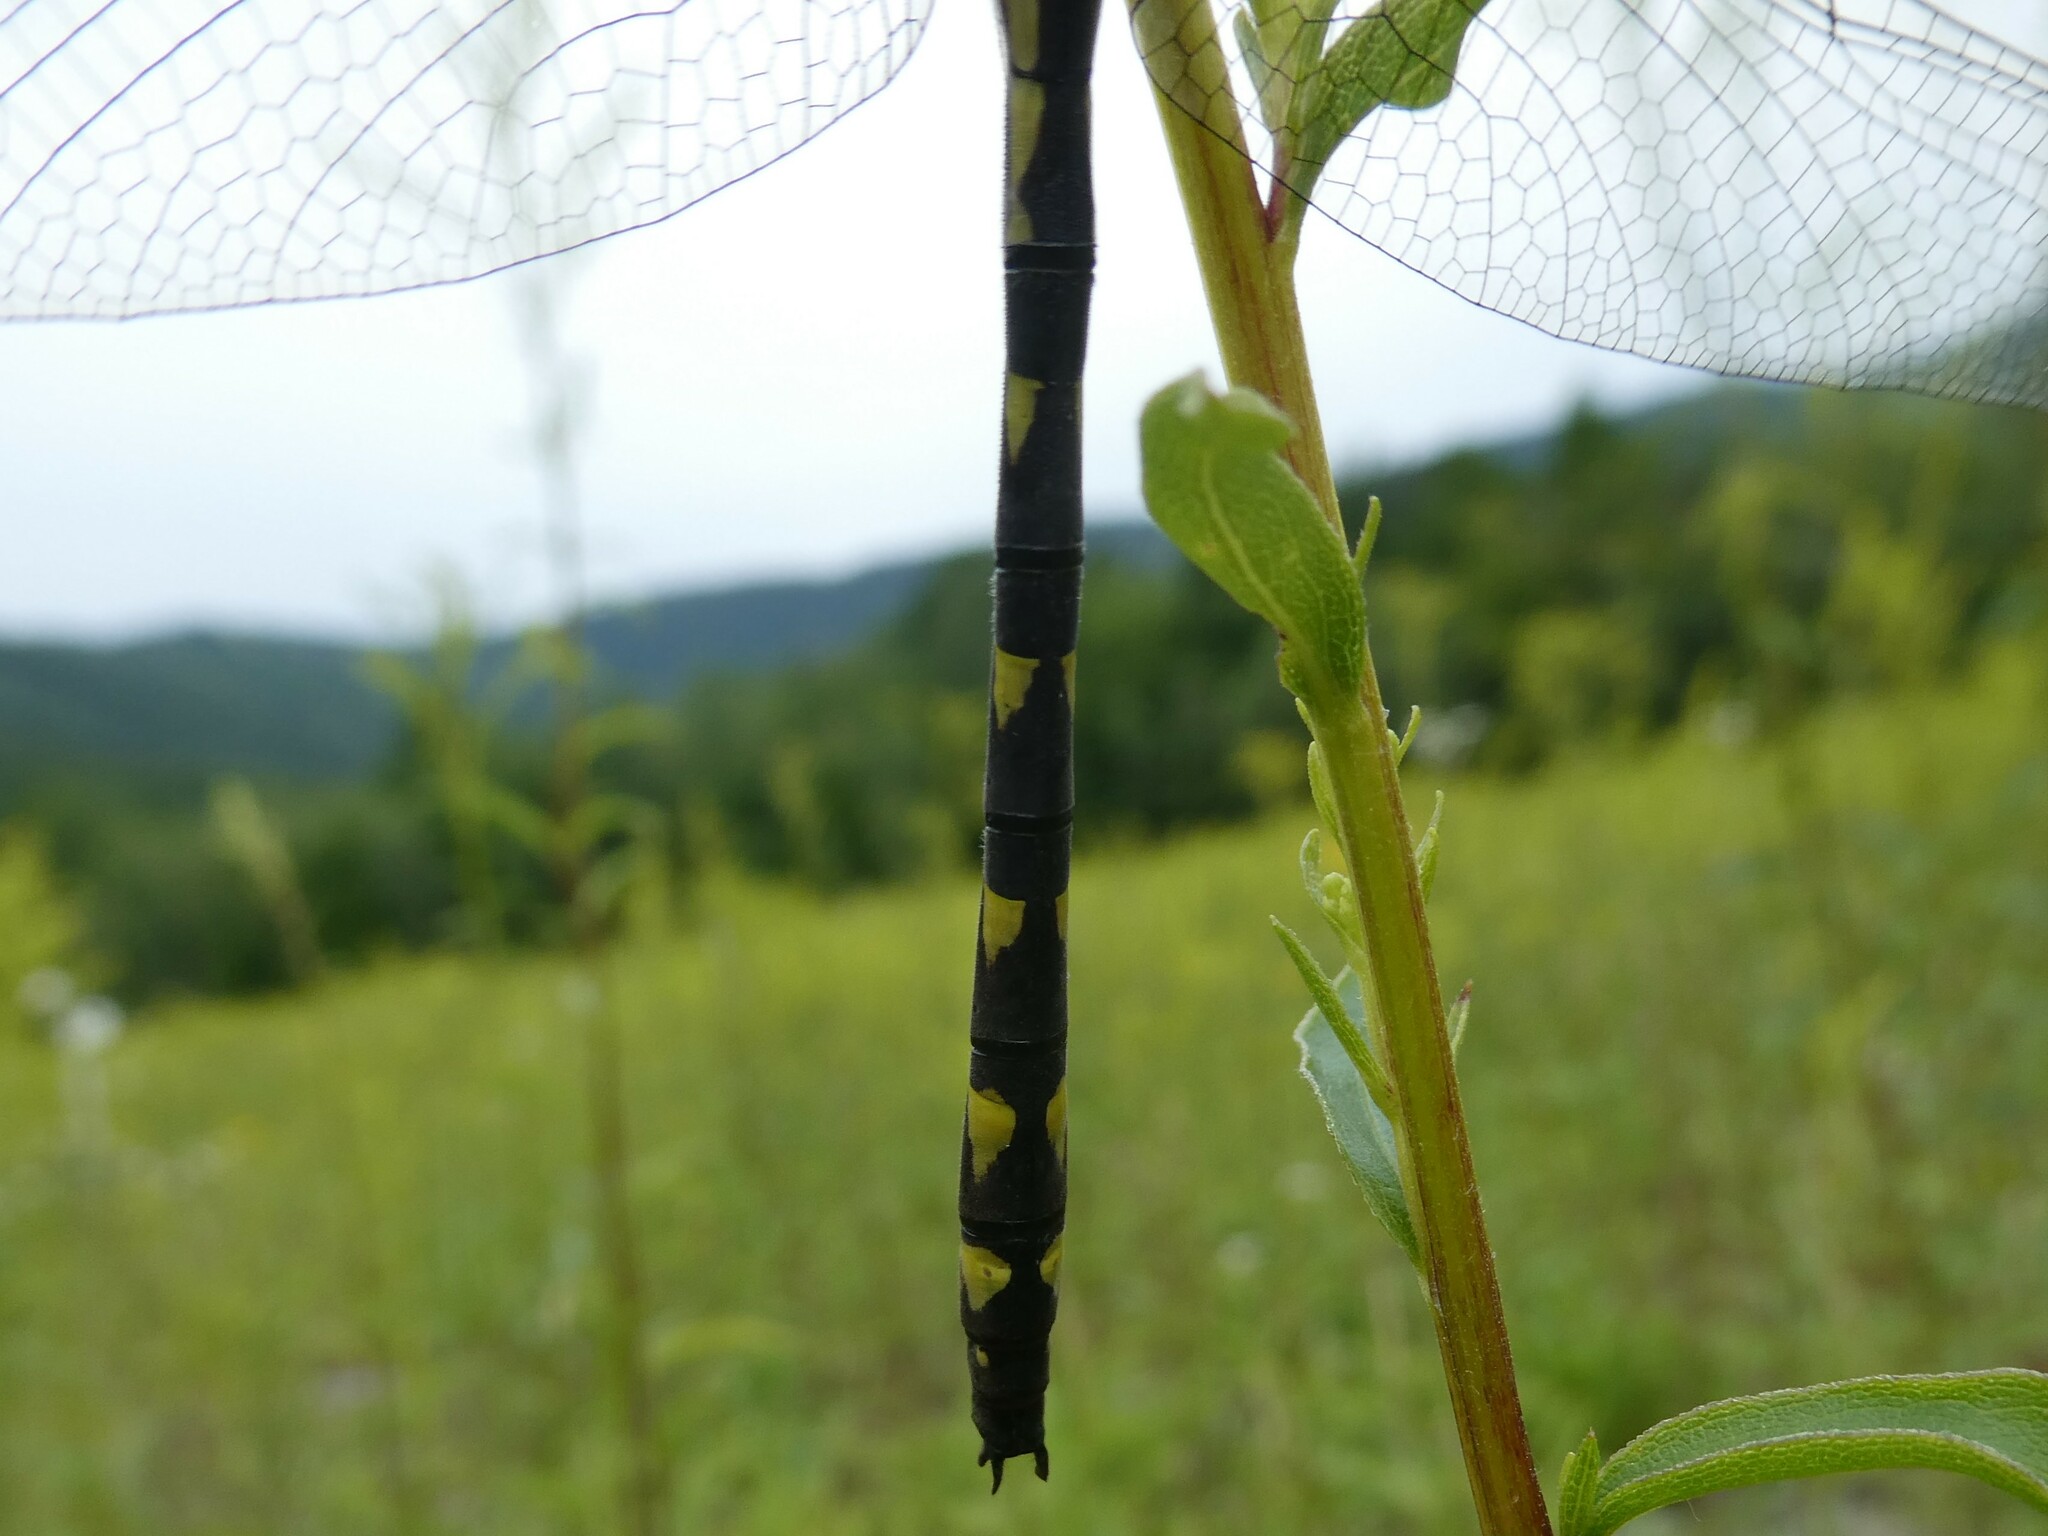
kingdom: Animalia
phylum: Arthropoda
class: Insecta
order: Odonata
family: Cordulegastridae
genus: Cordulegaster
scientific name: Cordulegaster diastatops
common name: Delta-spotted spiketail
